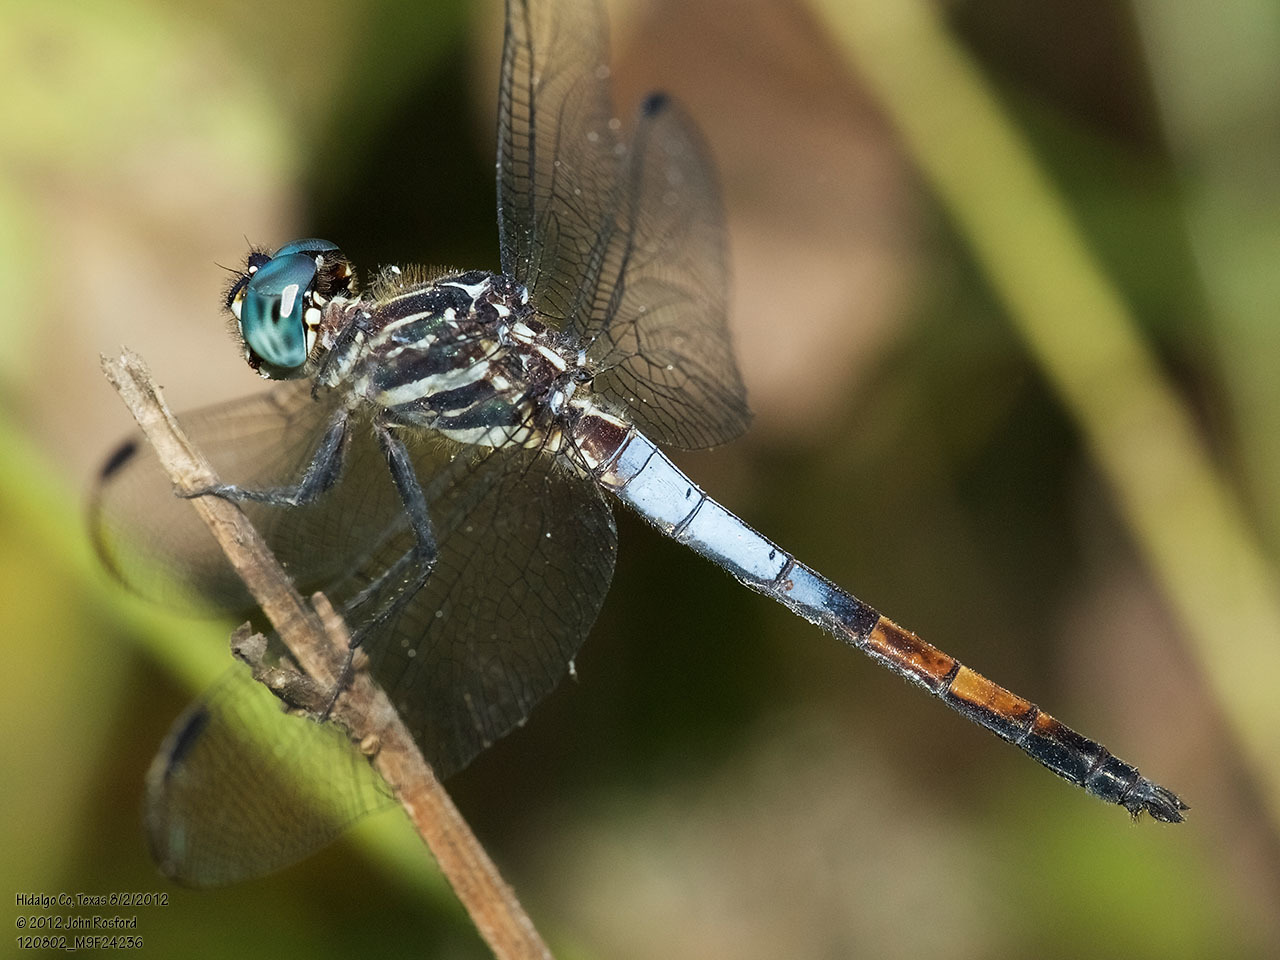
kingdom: Animalia
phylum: Arthropoda
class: Insecta
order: Odonata
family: Libellulidae
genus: Cannaphila
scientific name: Cannaphila insularis
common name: Gray-waisted skimmer
